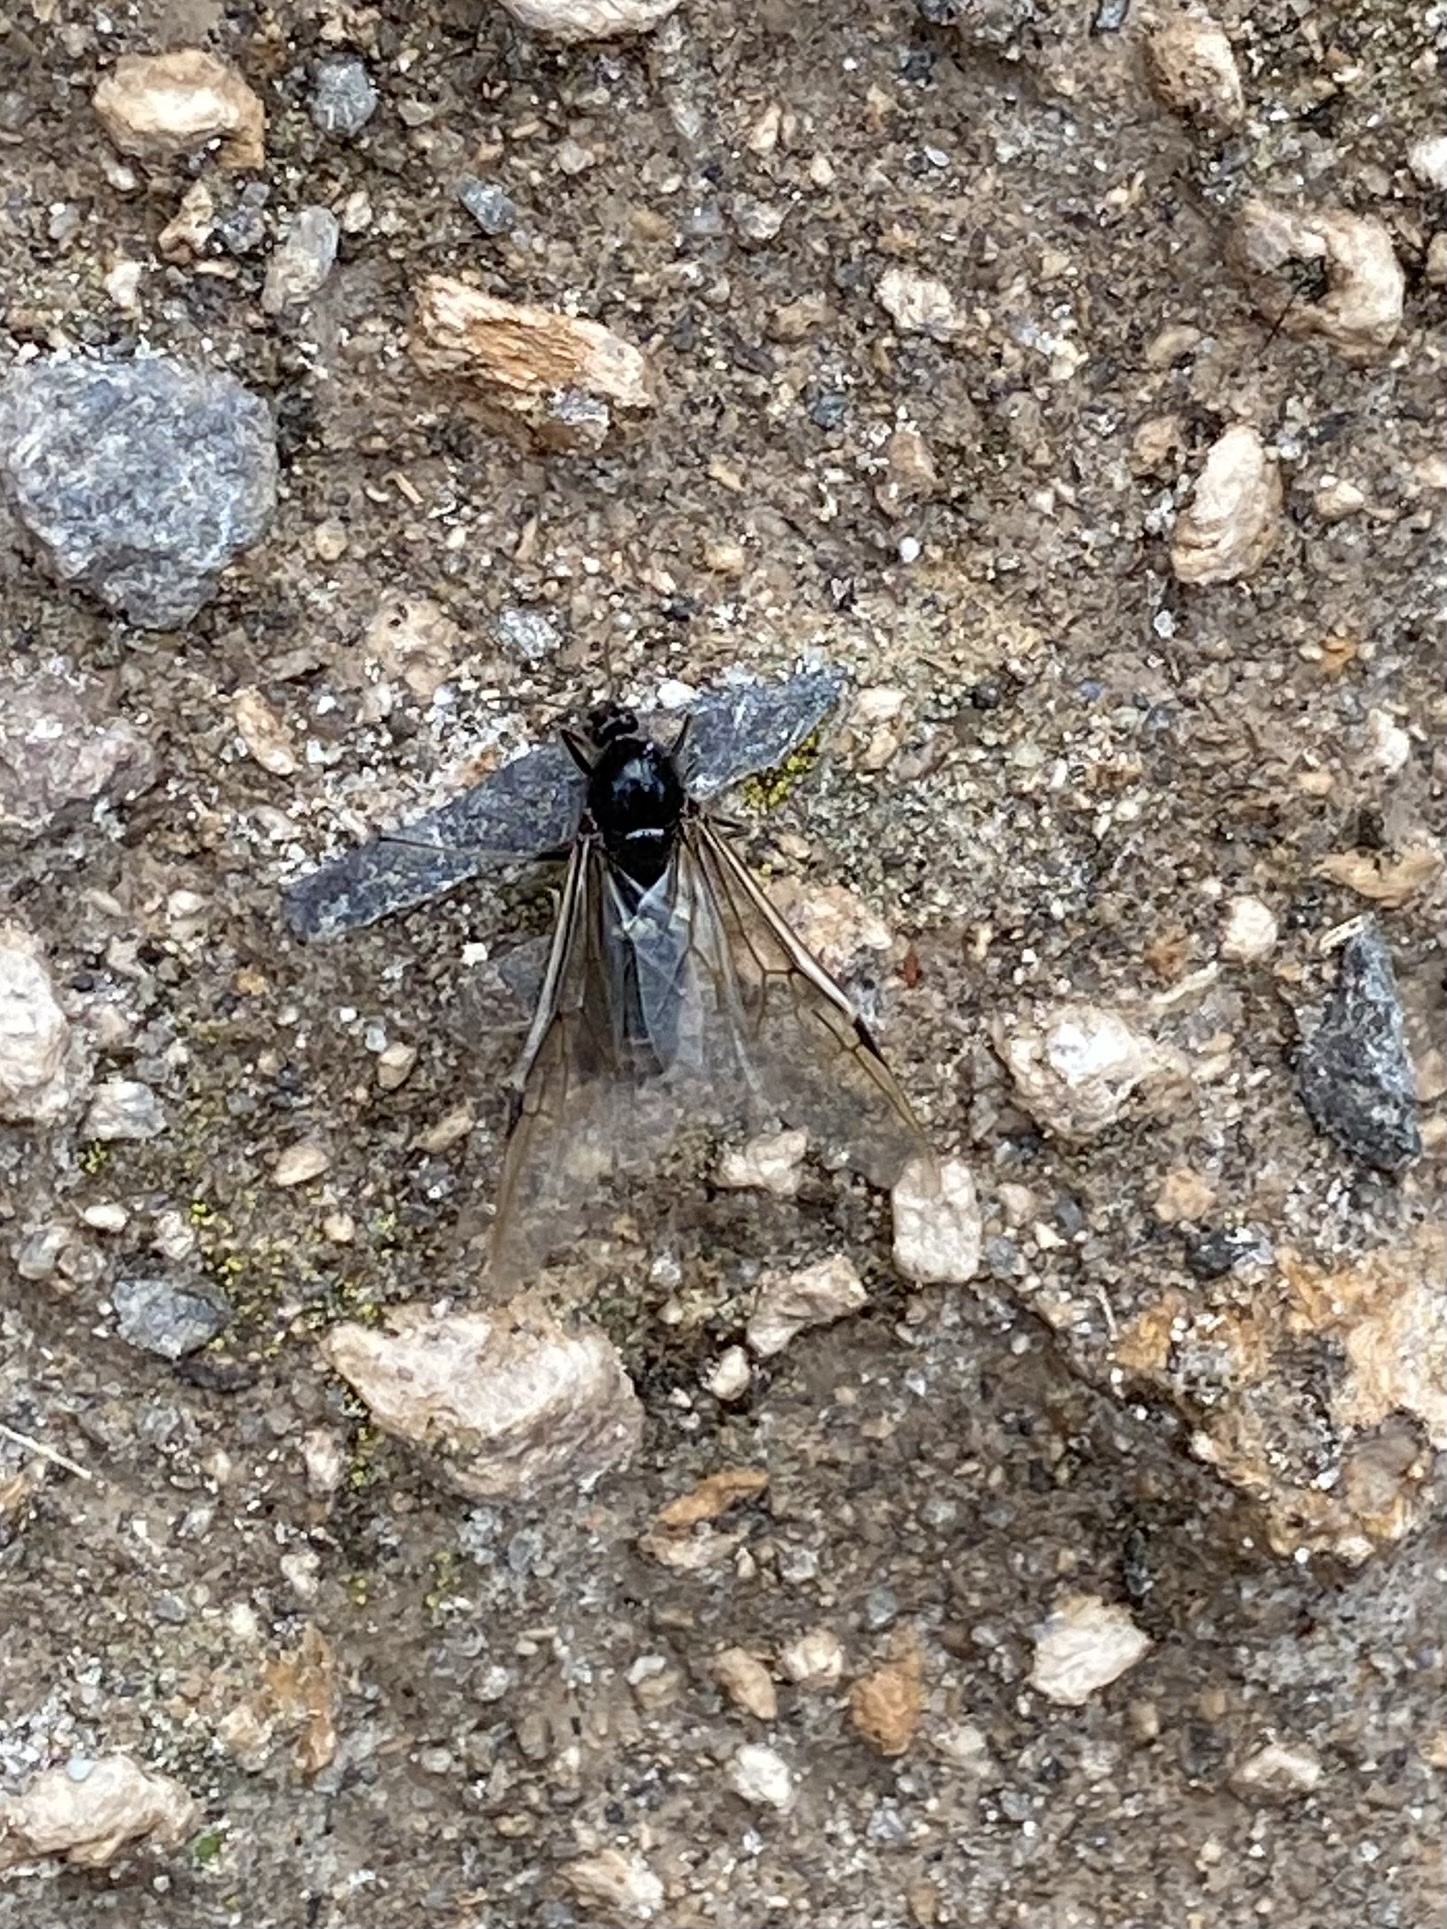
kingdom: Animalia
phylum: Arthropoda
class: Insecta
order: Hymenoptera
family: Formicidae
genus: Liometopum
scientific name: Liometopum apiculatum
